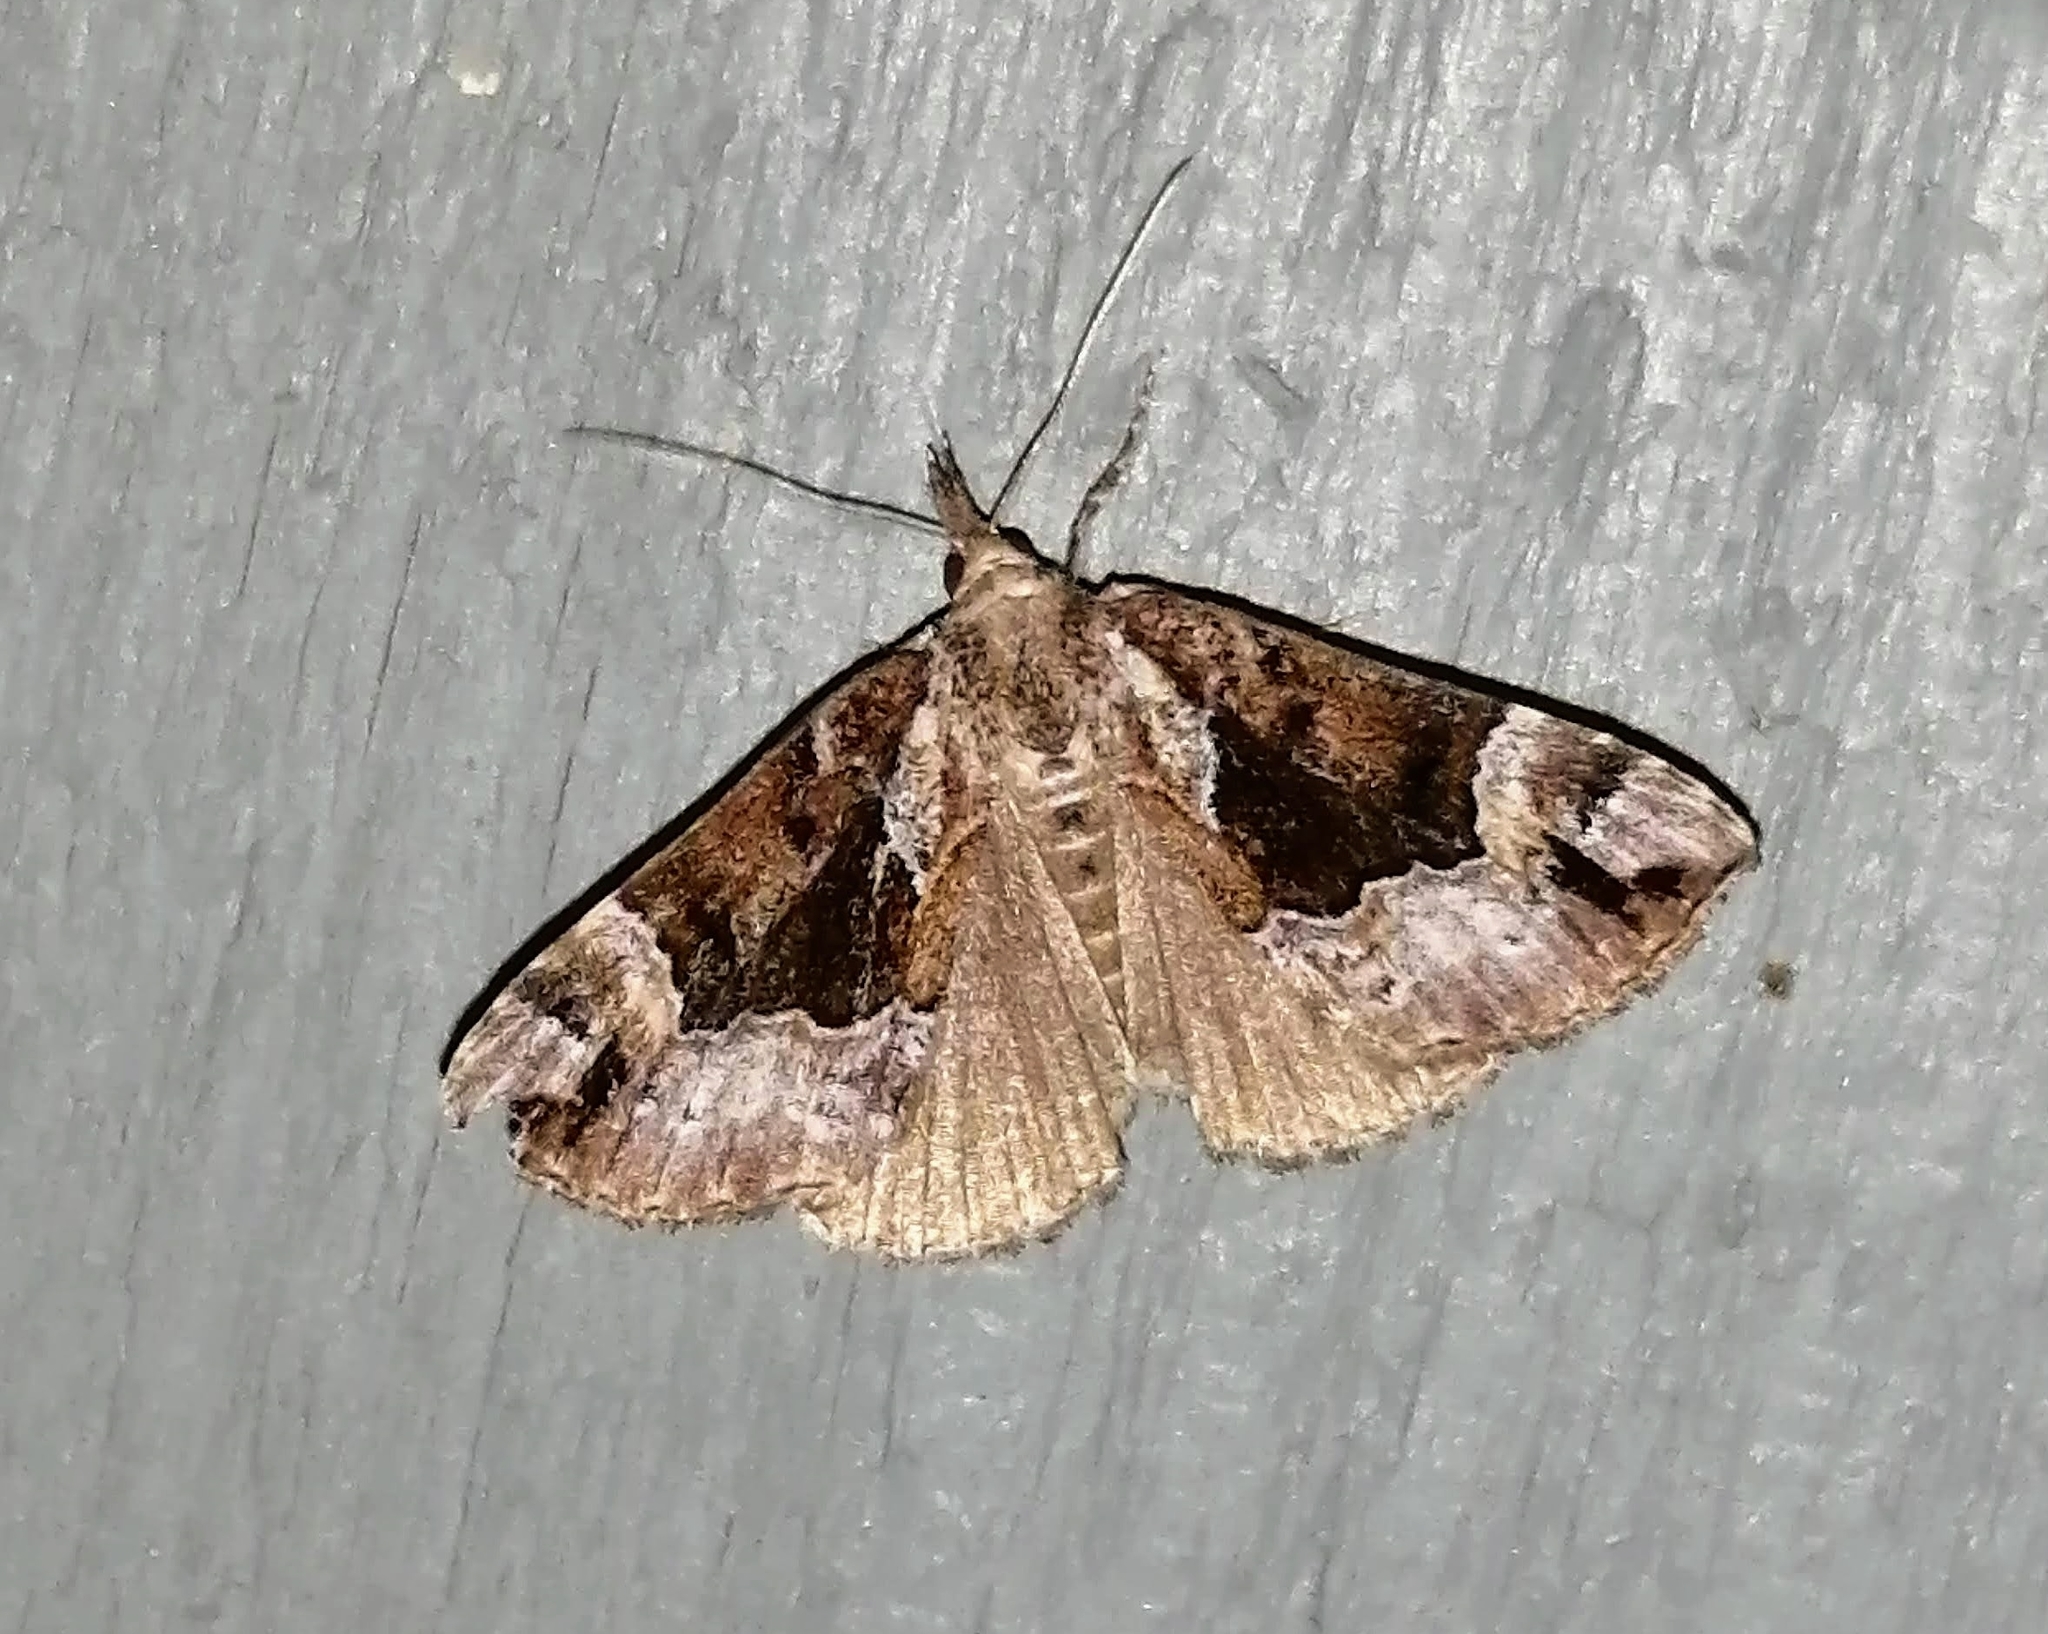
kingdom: Animalia
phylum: Arthropoda
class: Insecta
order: Lepidoptera
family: Erebidae
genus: Hypena
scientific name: Hypena palparia
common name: Mottled bomolocha moth
